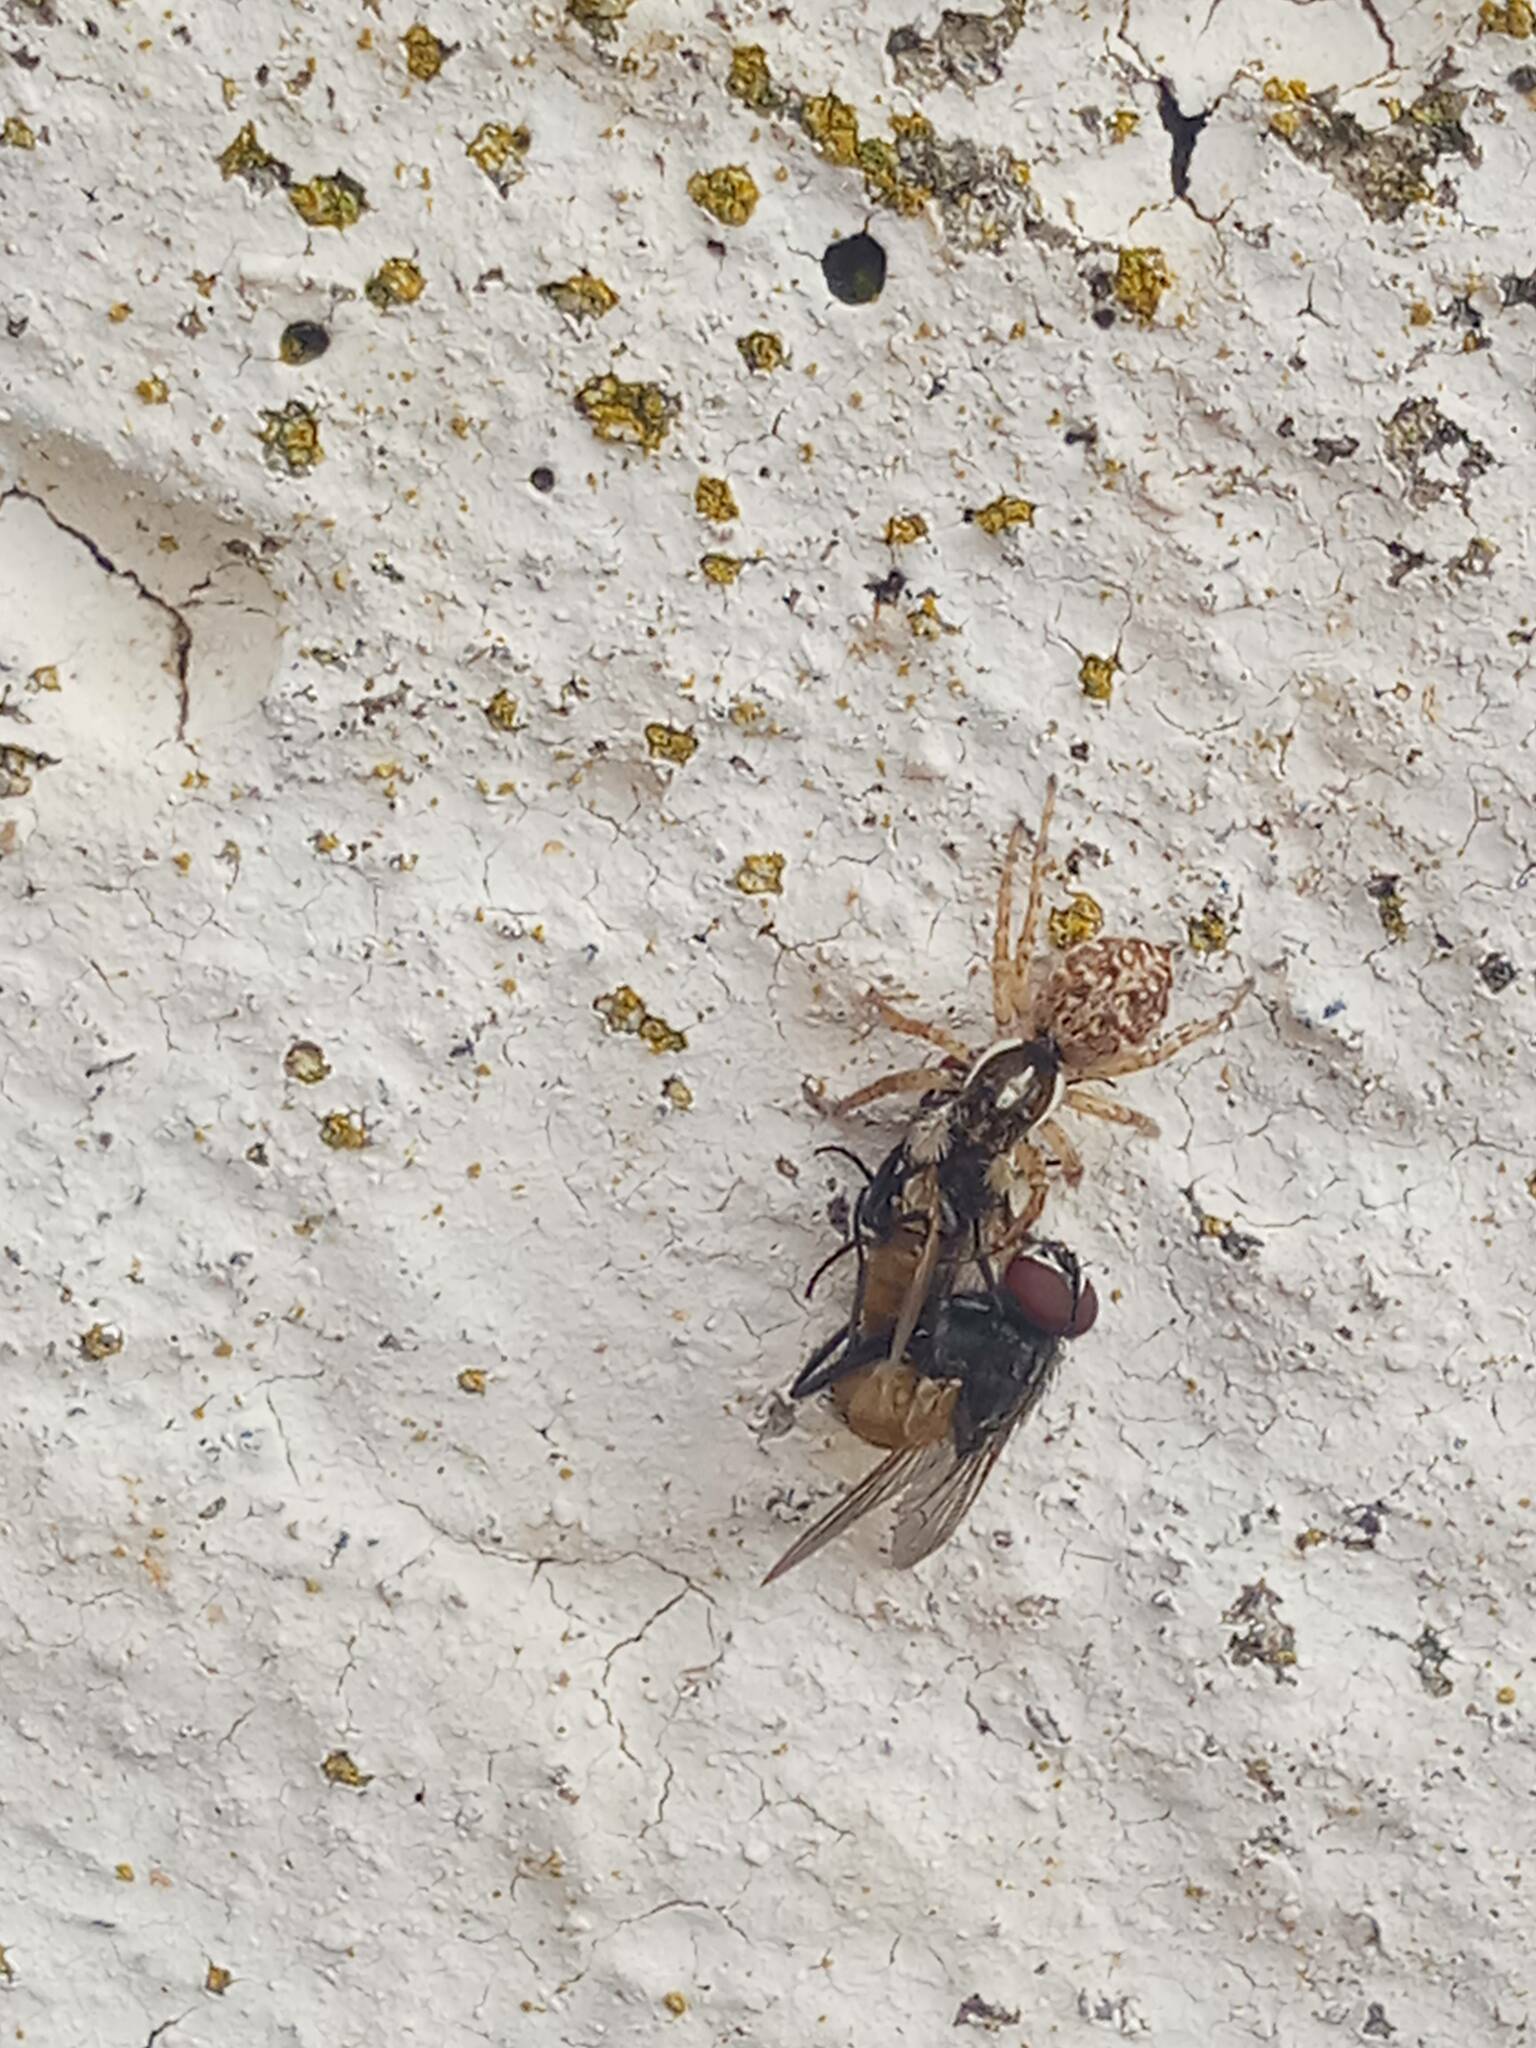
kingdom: Animalia
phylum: Arthropoda
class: Arachnida
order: Araneae
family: Salticidae
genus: Menemerus
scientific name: Menemerus semilimbatus
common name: Jumping spider
